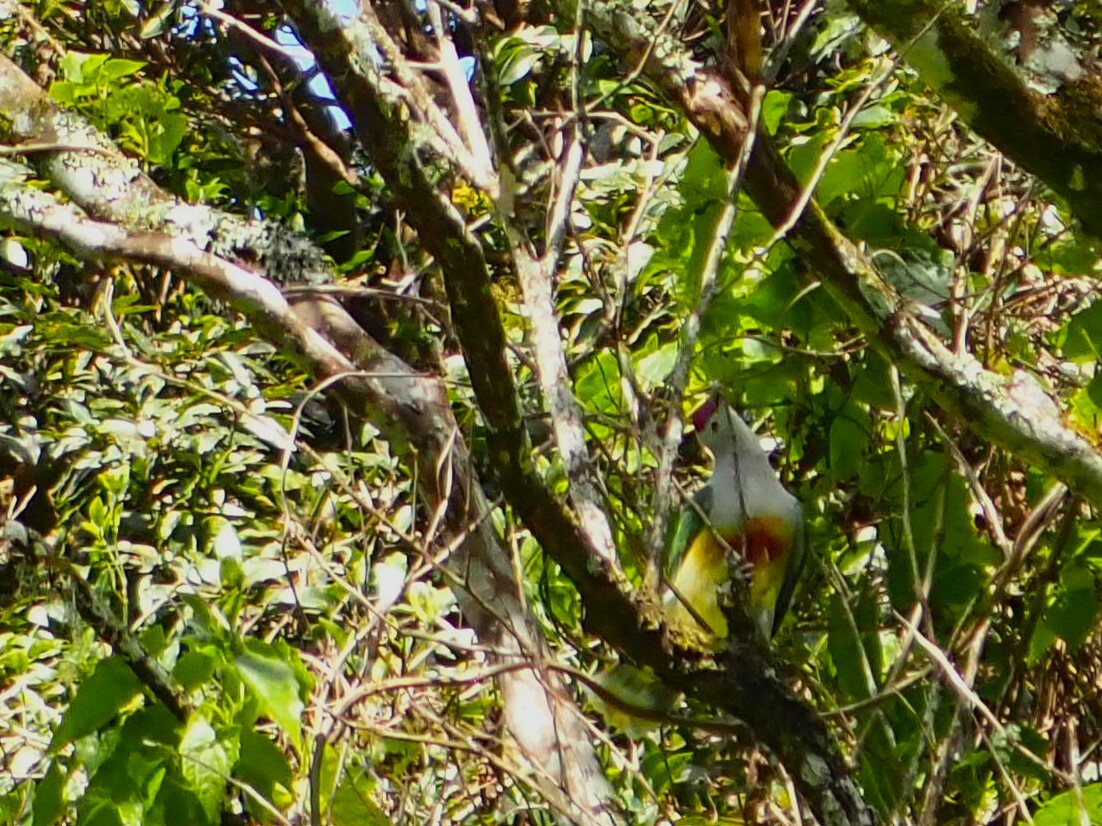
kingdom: Animalia
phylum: Chordata
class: Aves
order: Columbiformes
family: Columbidae
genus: Ptilinopus
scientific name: Ptilinopus rarotongensis
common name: Lilac-crowned fruit dove
